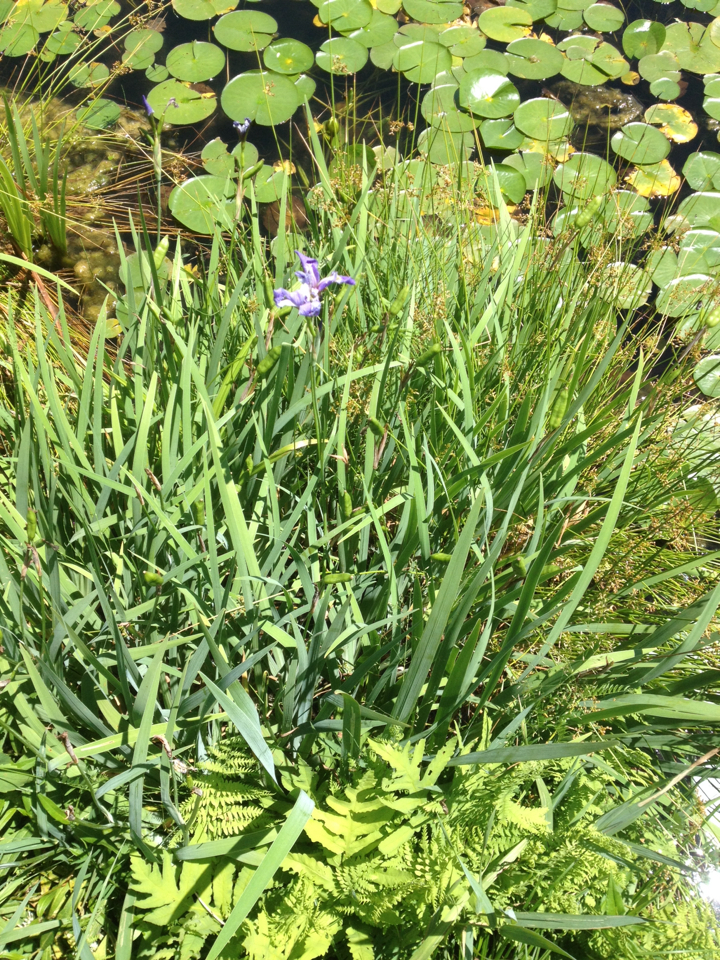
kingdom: Plantae
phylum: Tracheophyta
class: Liliopsida
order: Asparagales
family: Iridaceae
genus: Iris
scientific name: Iris versicolor
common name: Purple iris
